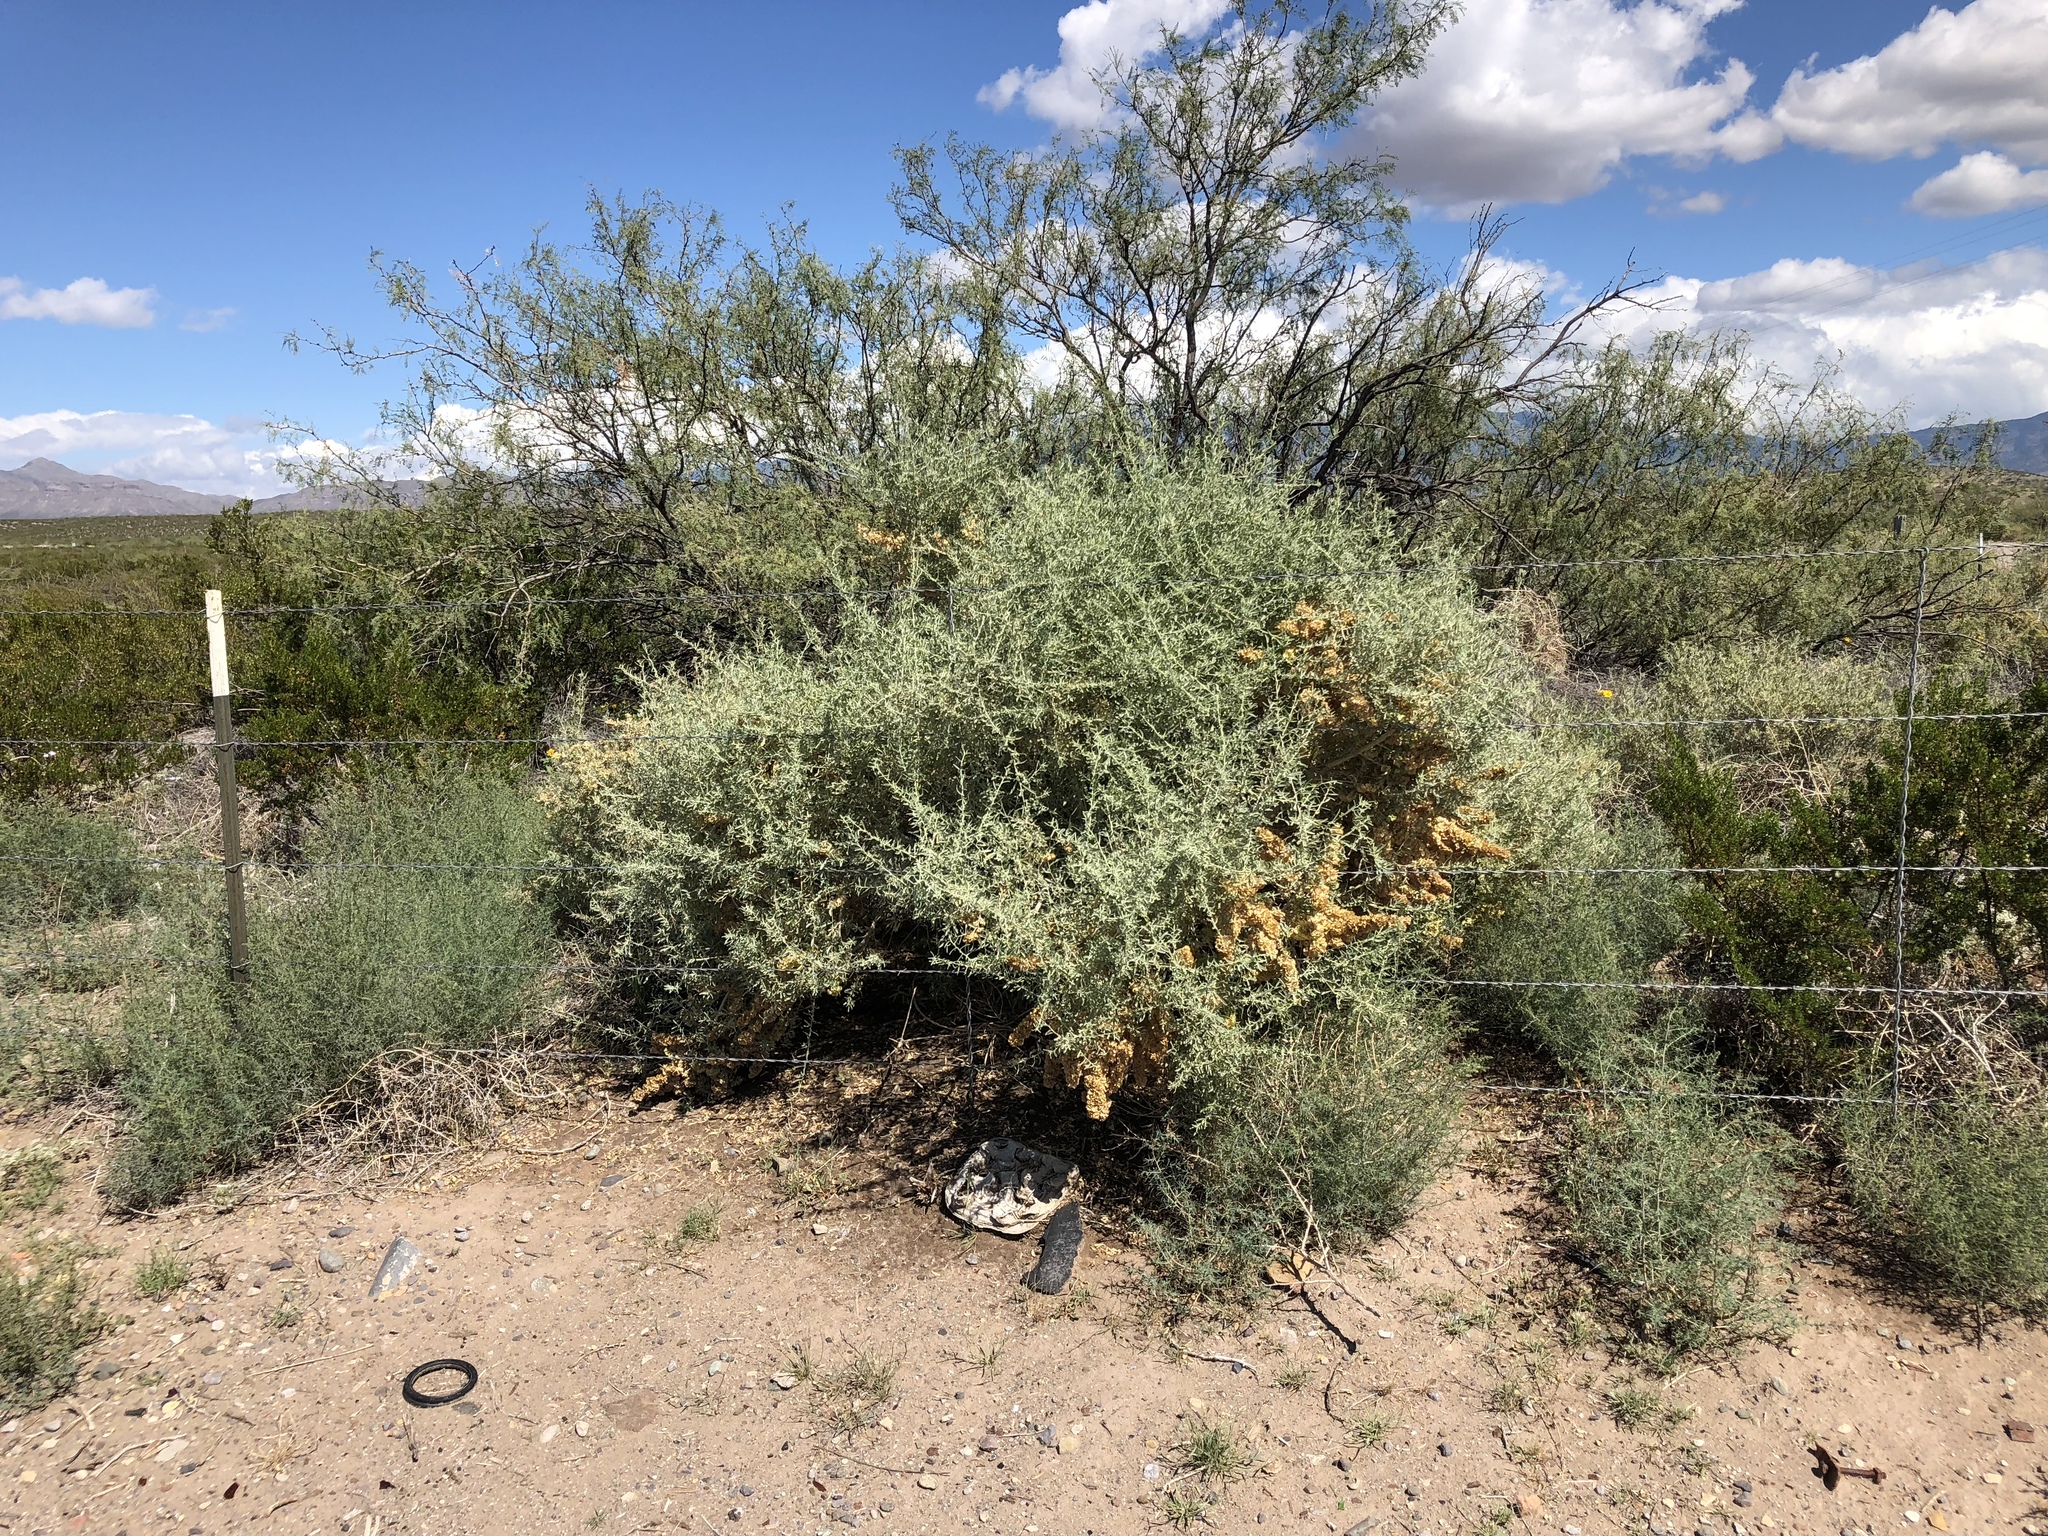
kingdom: Plantae
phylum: Tracheophyta
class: Magnoliopsida
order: Caryophyllales
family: Amaranthaceae
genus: Atriplex
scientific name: Atriplex canescens
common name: Four-wing saltbush
